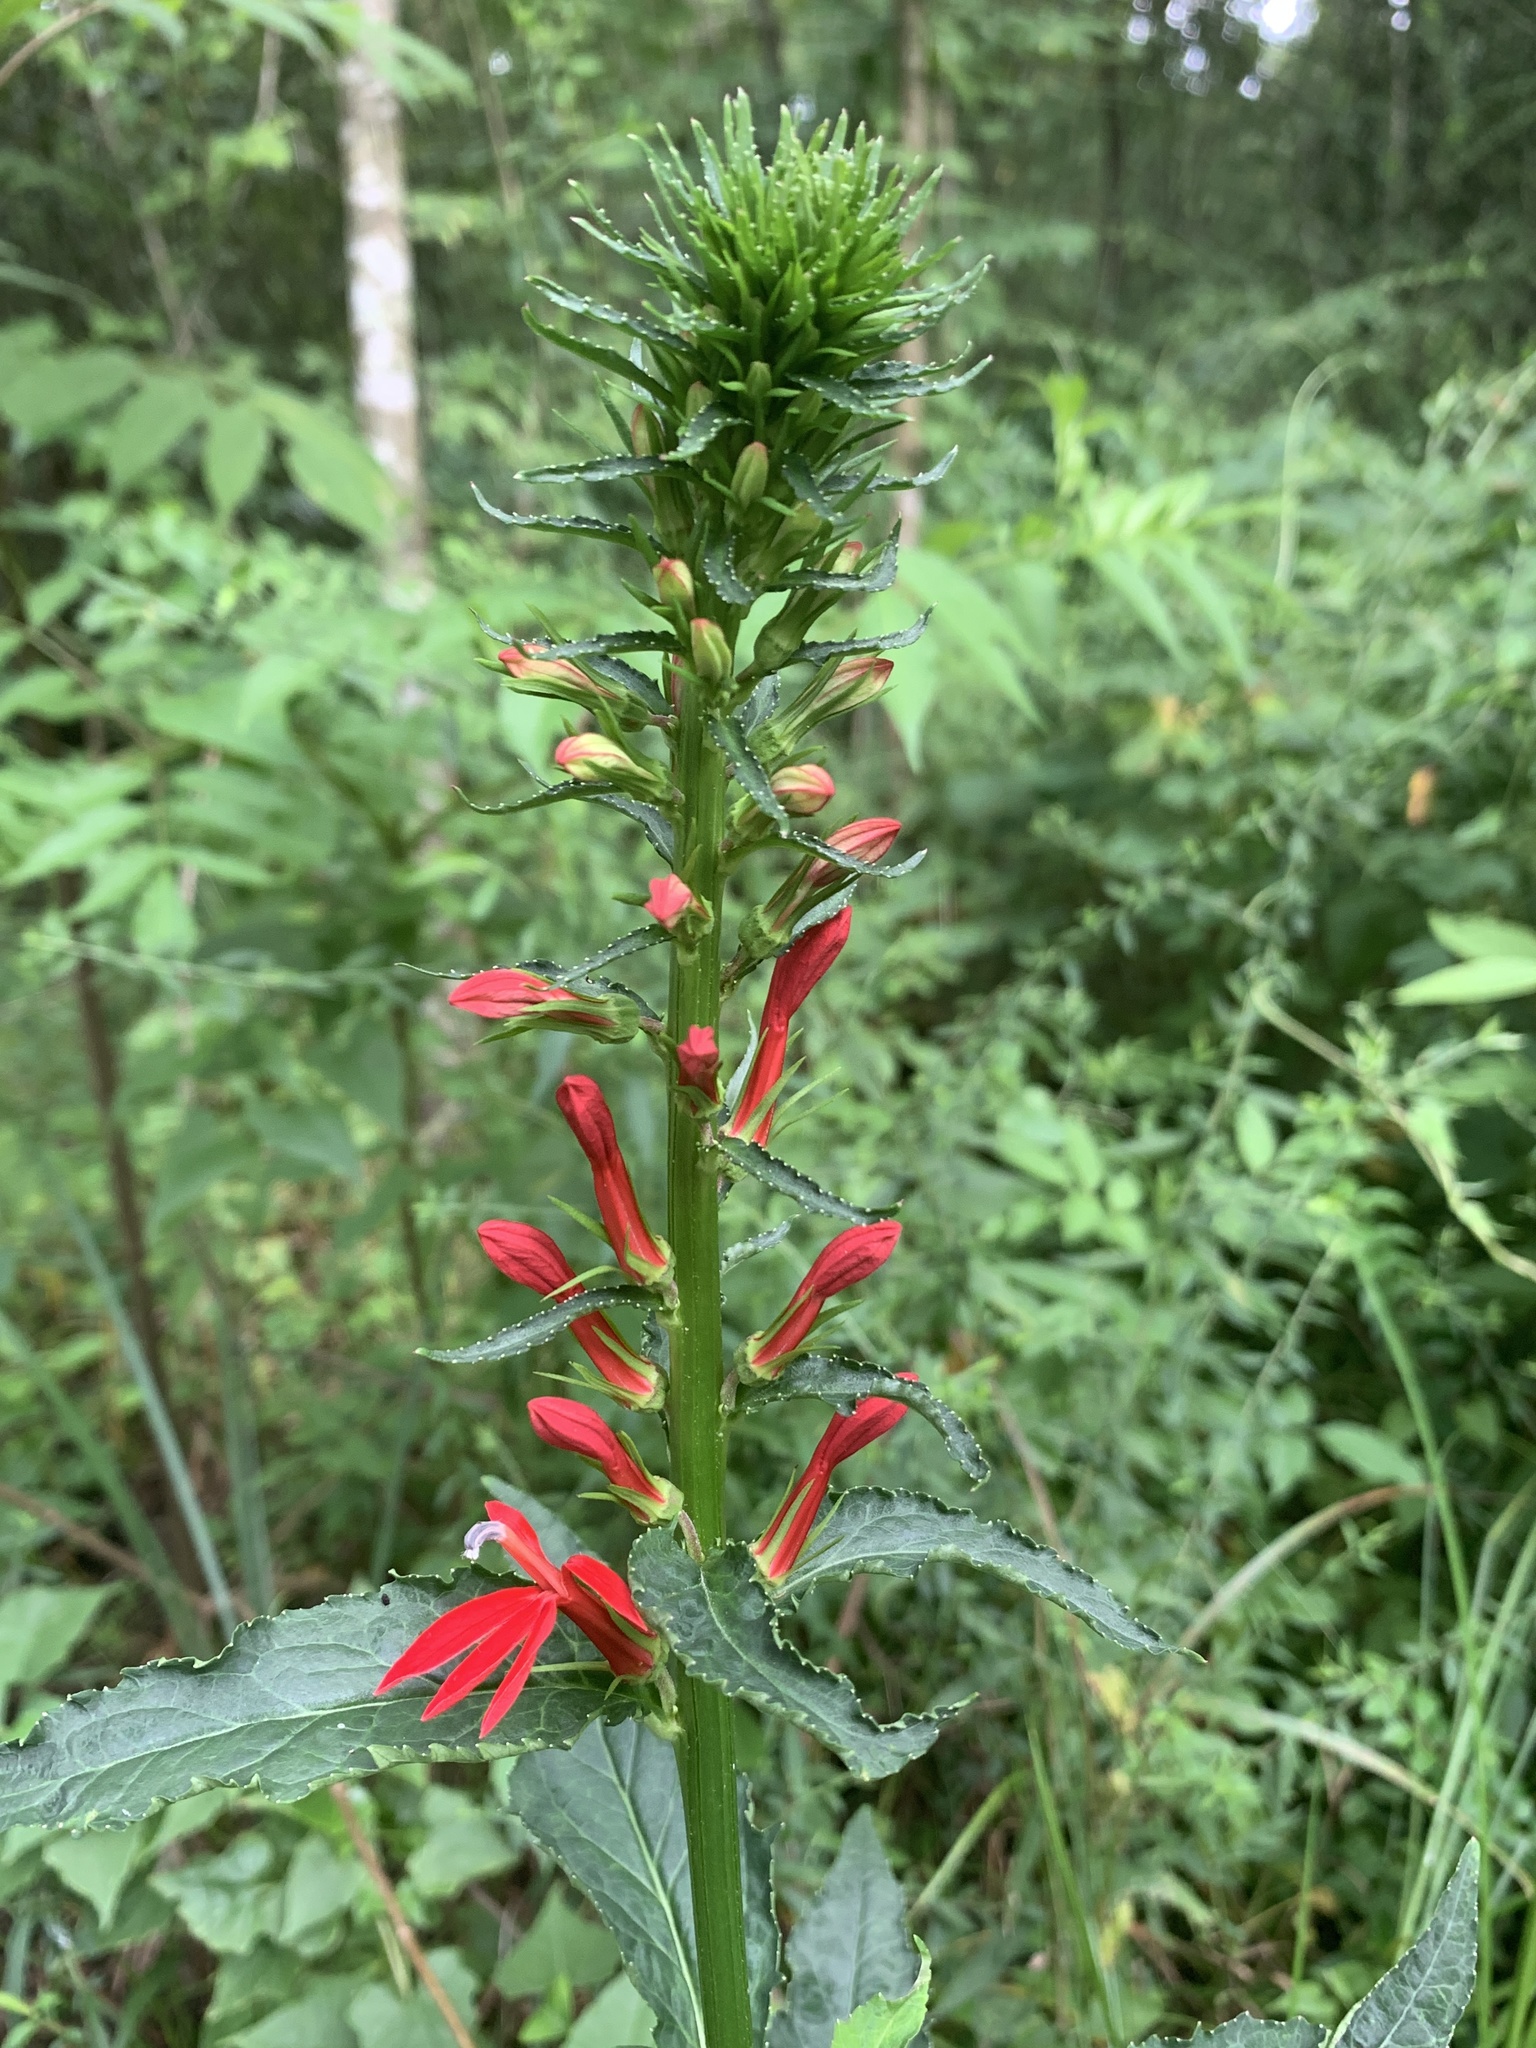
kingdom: Plantae
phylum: Tracheophyta
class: Magnoliopsida
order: Asterales
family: Campanulaceae
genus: Lobelia
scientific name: Lobelia cardinalis
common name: Cardinal flower
